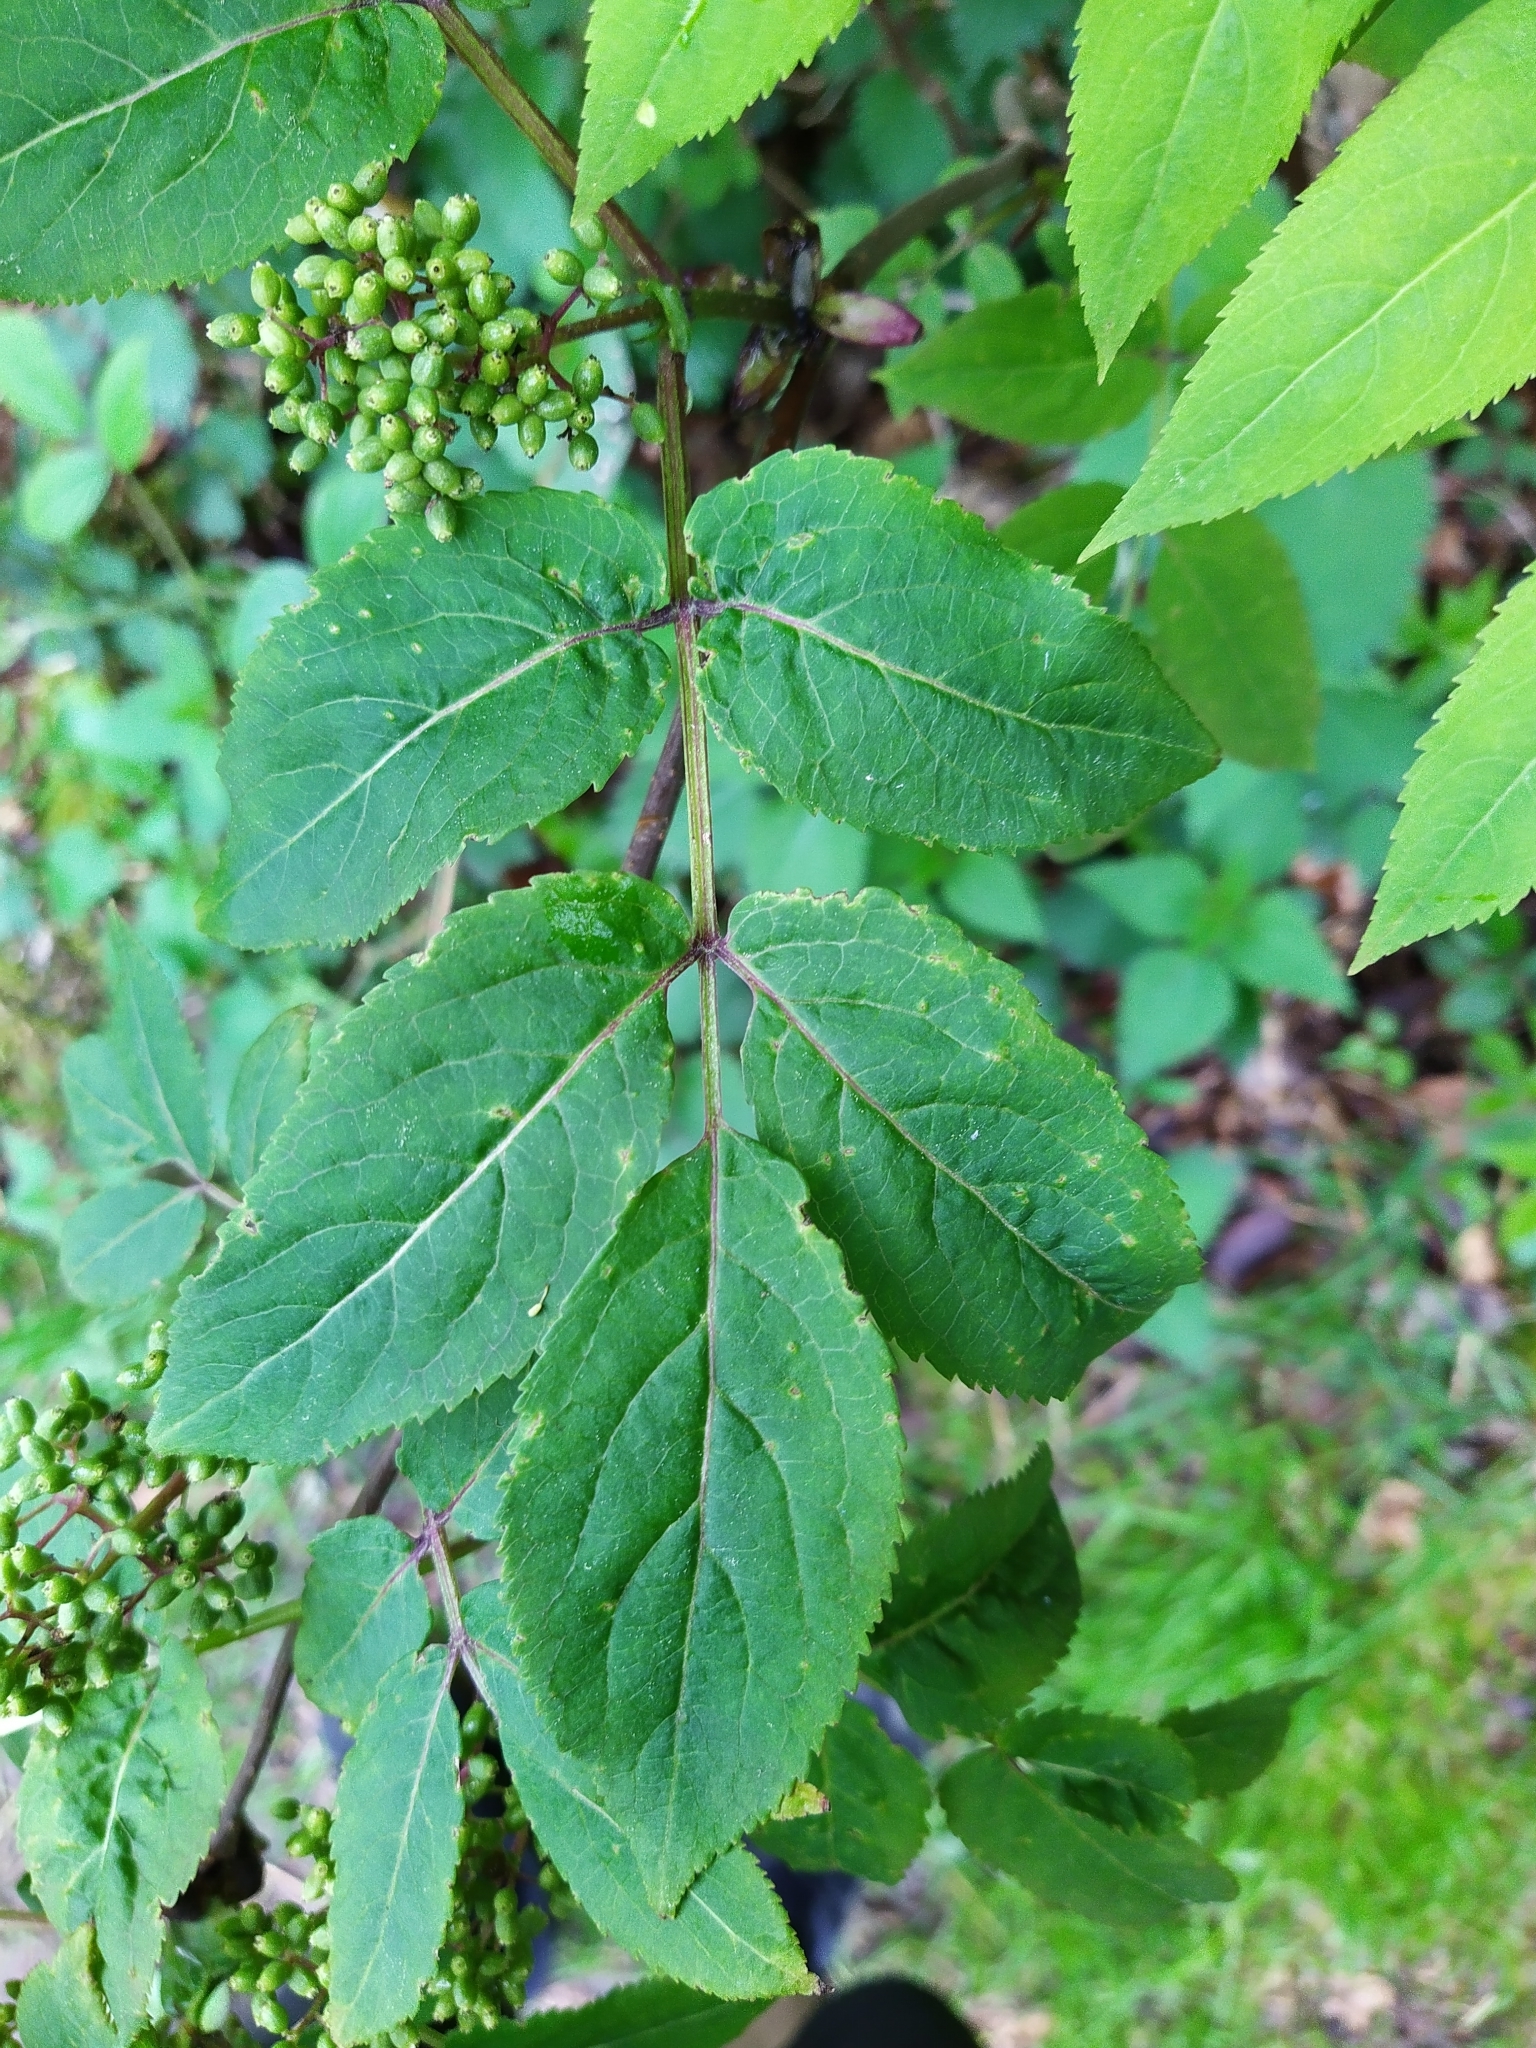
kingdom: Plantae
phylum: Tracheophyta
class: Magnoliopsida
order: Dipsacales
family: Viburnaceae
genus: Sambucus
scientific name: Sambucus racemosa
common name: Red-berried elder
